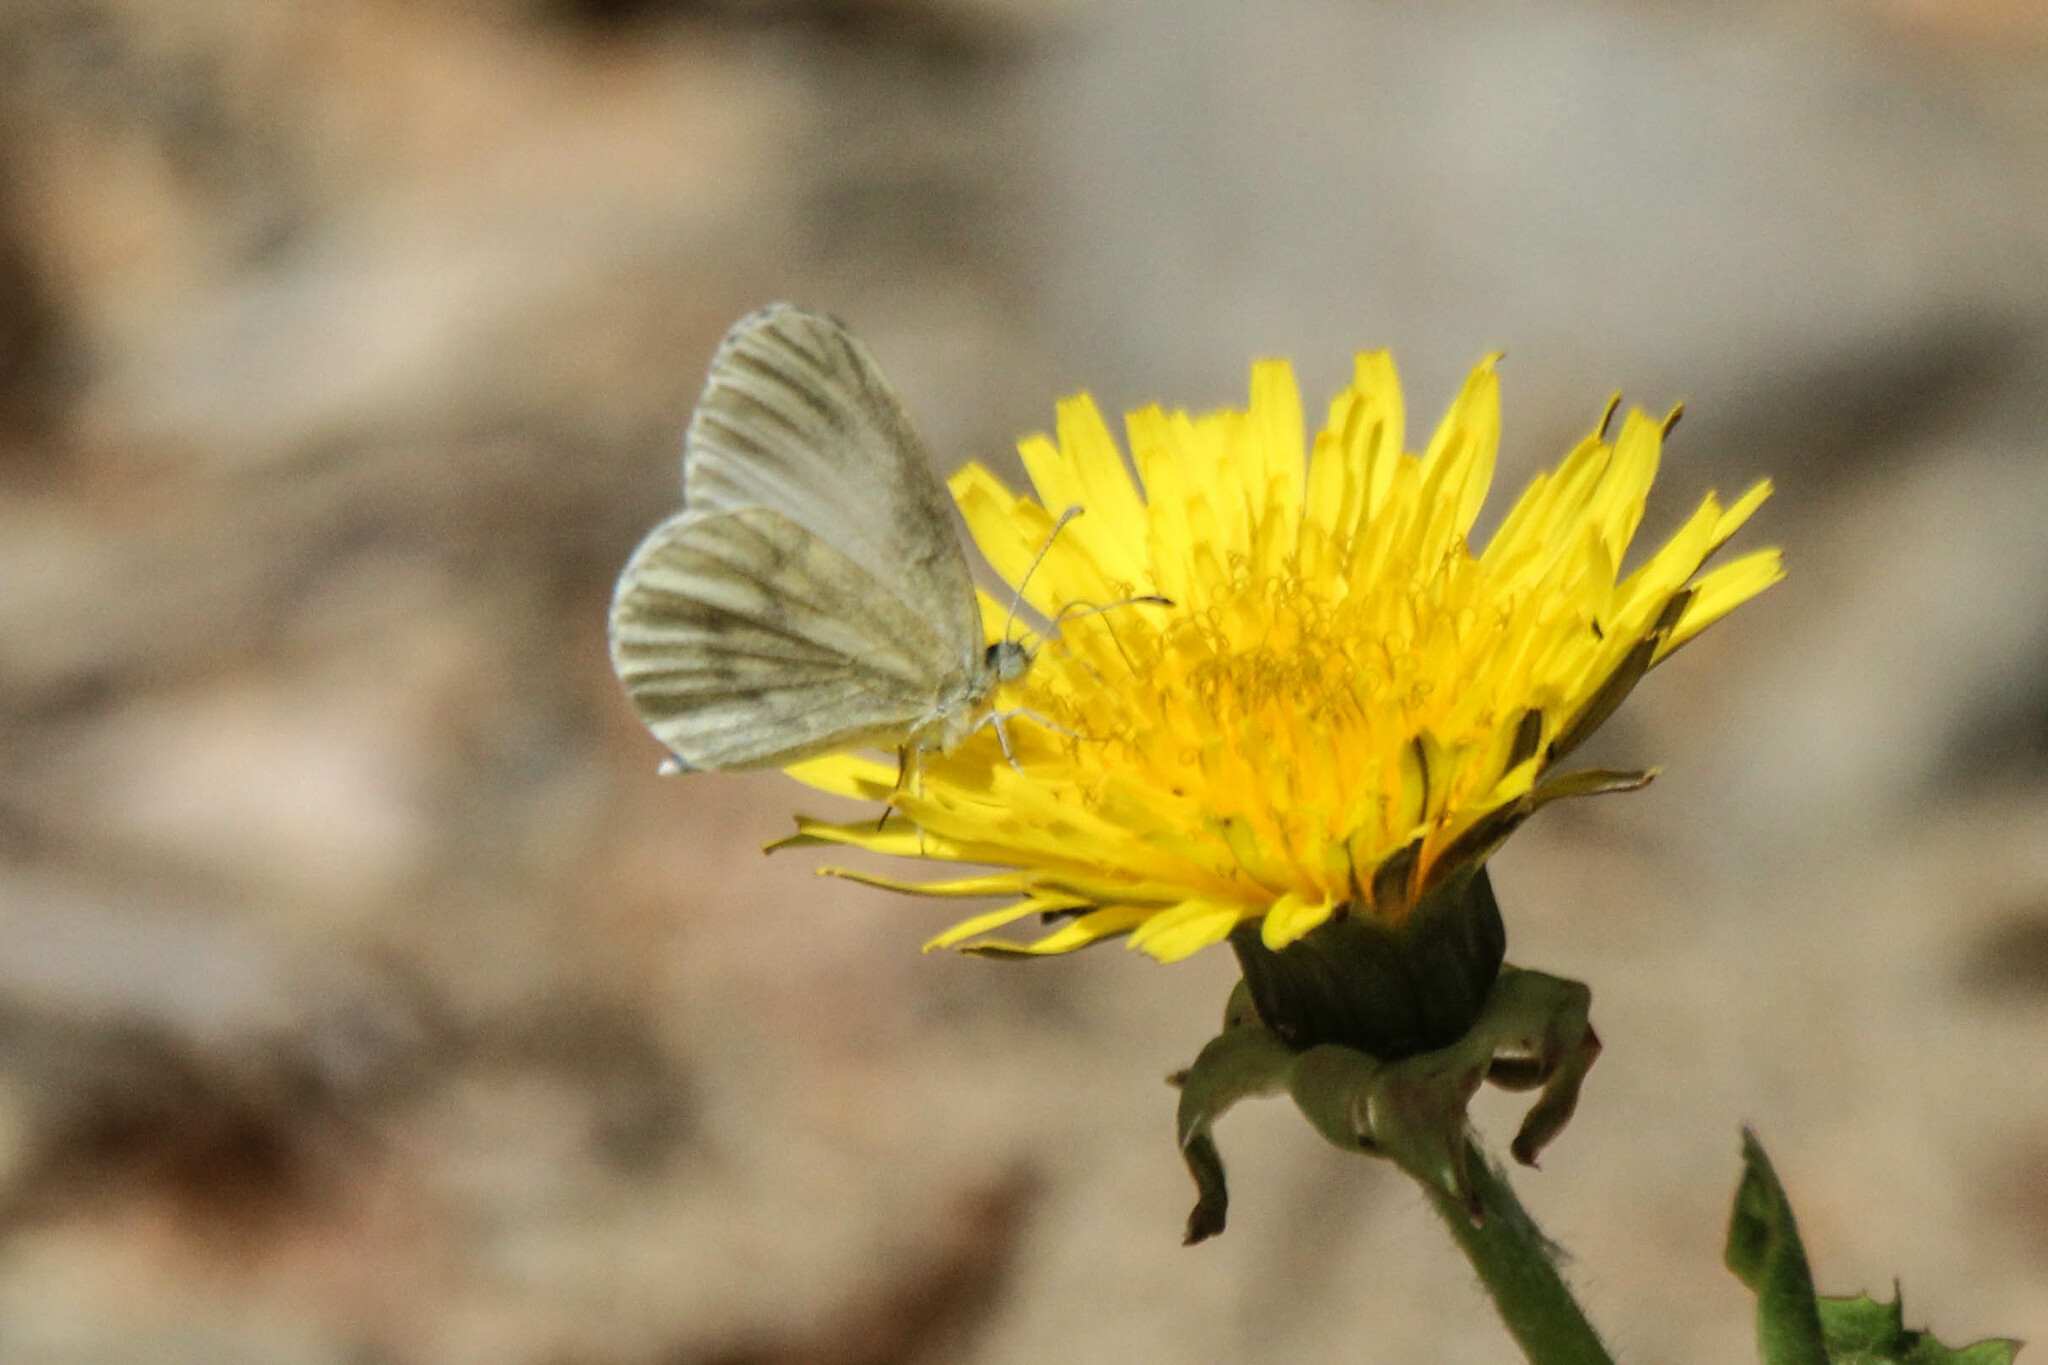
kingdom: Animalia
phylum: Arthropoda
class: Insecta
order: Lepidoptera
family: Pieridae
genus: Leptidea
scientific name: Leptidea morsei
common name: Fenton's wood white
